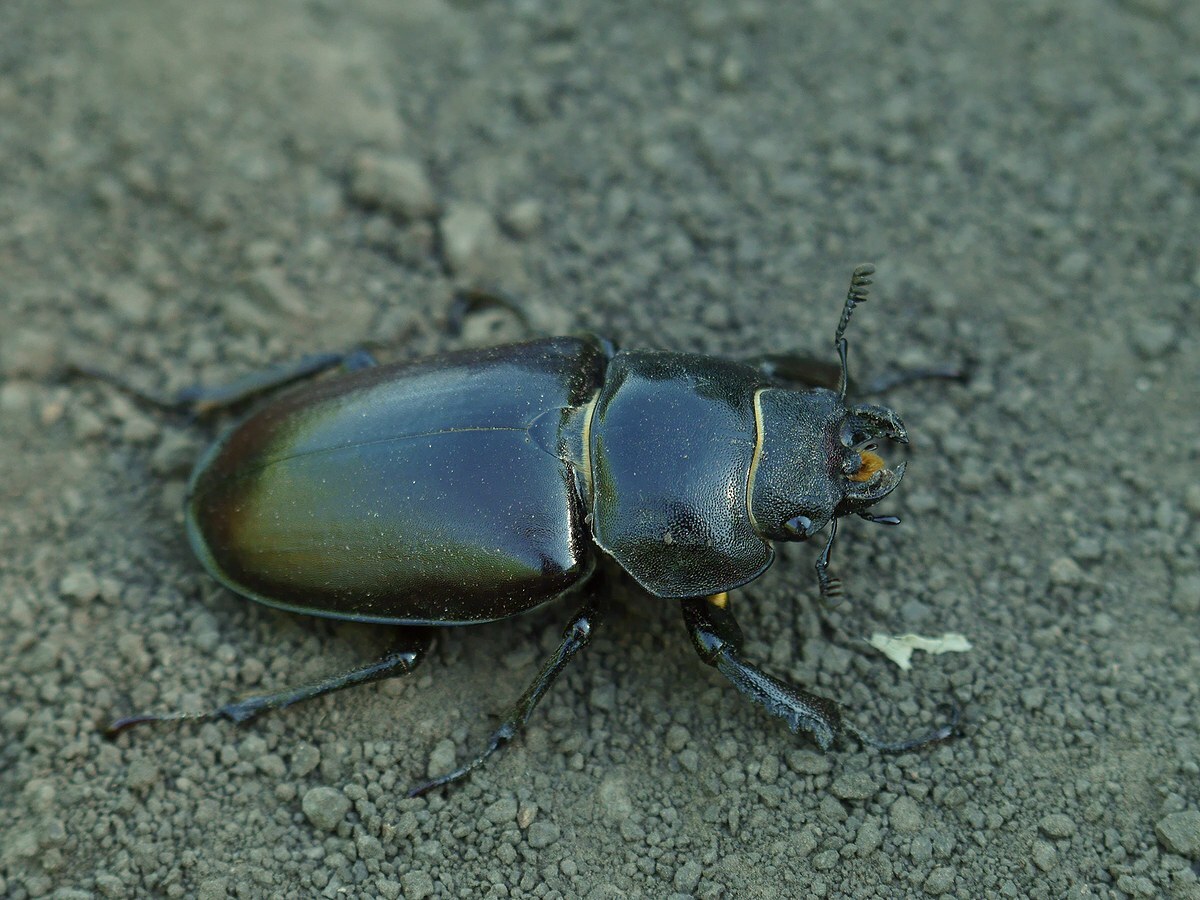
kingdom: Animalia
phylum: Arthropoda
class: Insecta
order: Coleoptera
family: Lucanidae
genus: Lucanus
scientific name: Lucanus cervus
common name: Stag beetle
